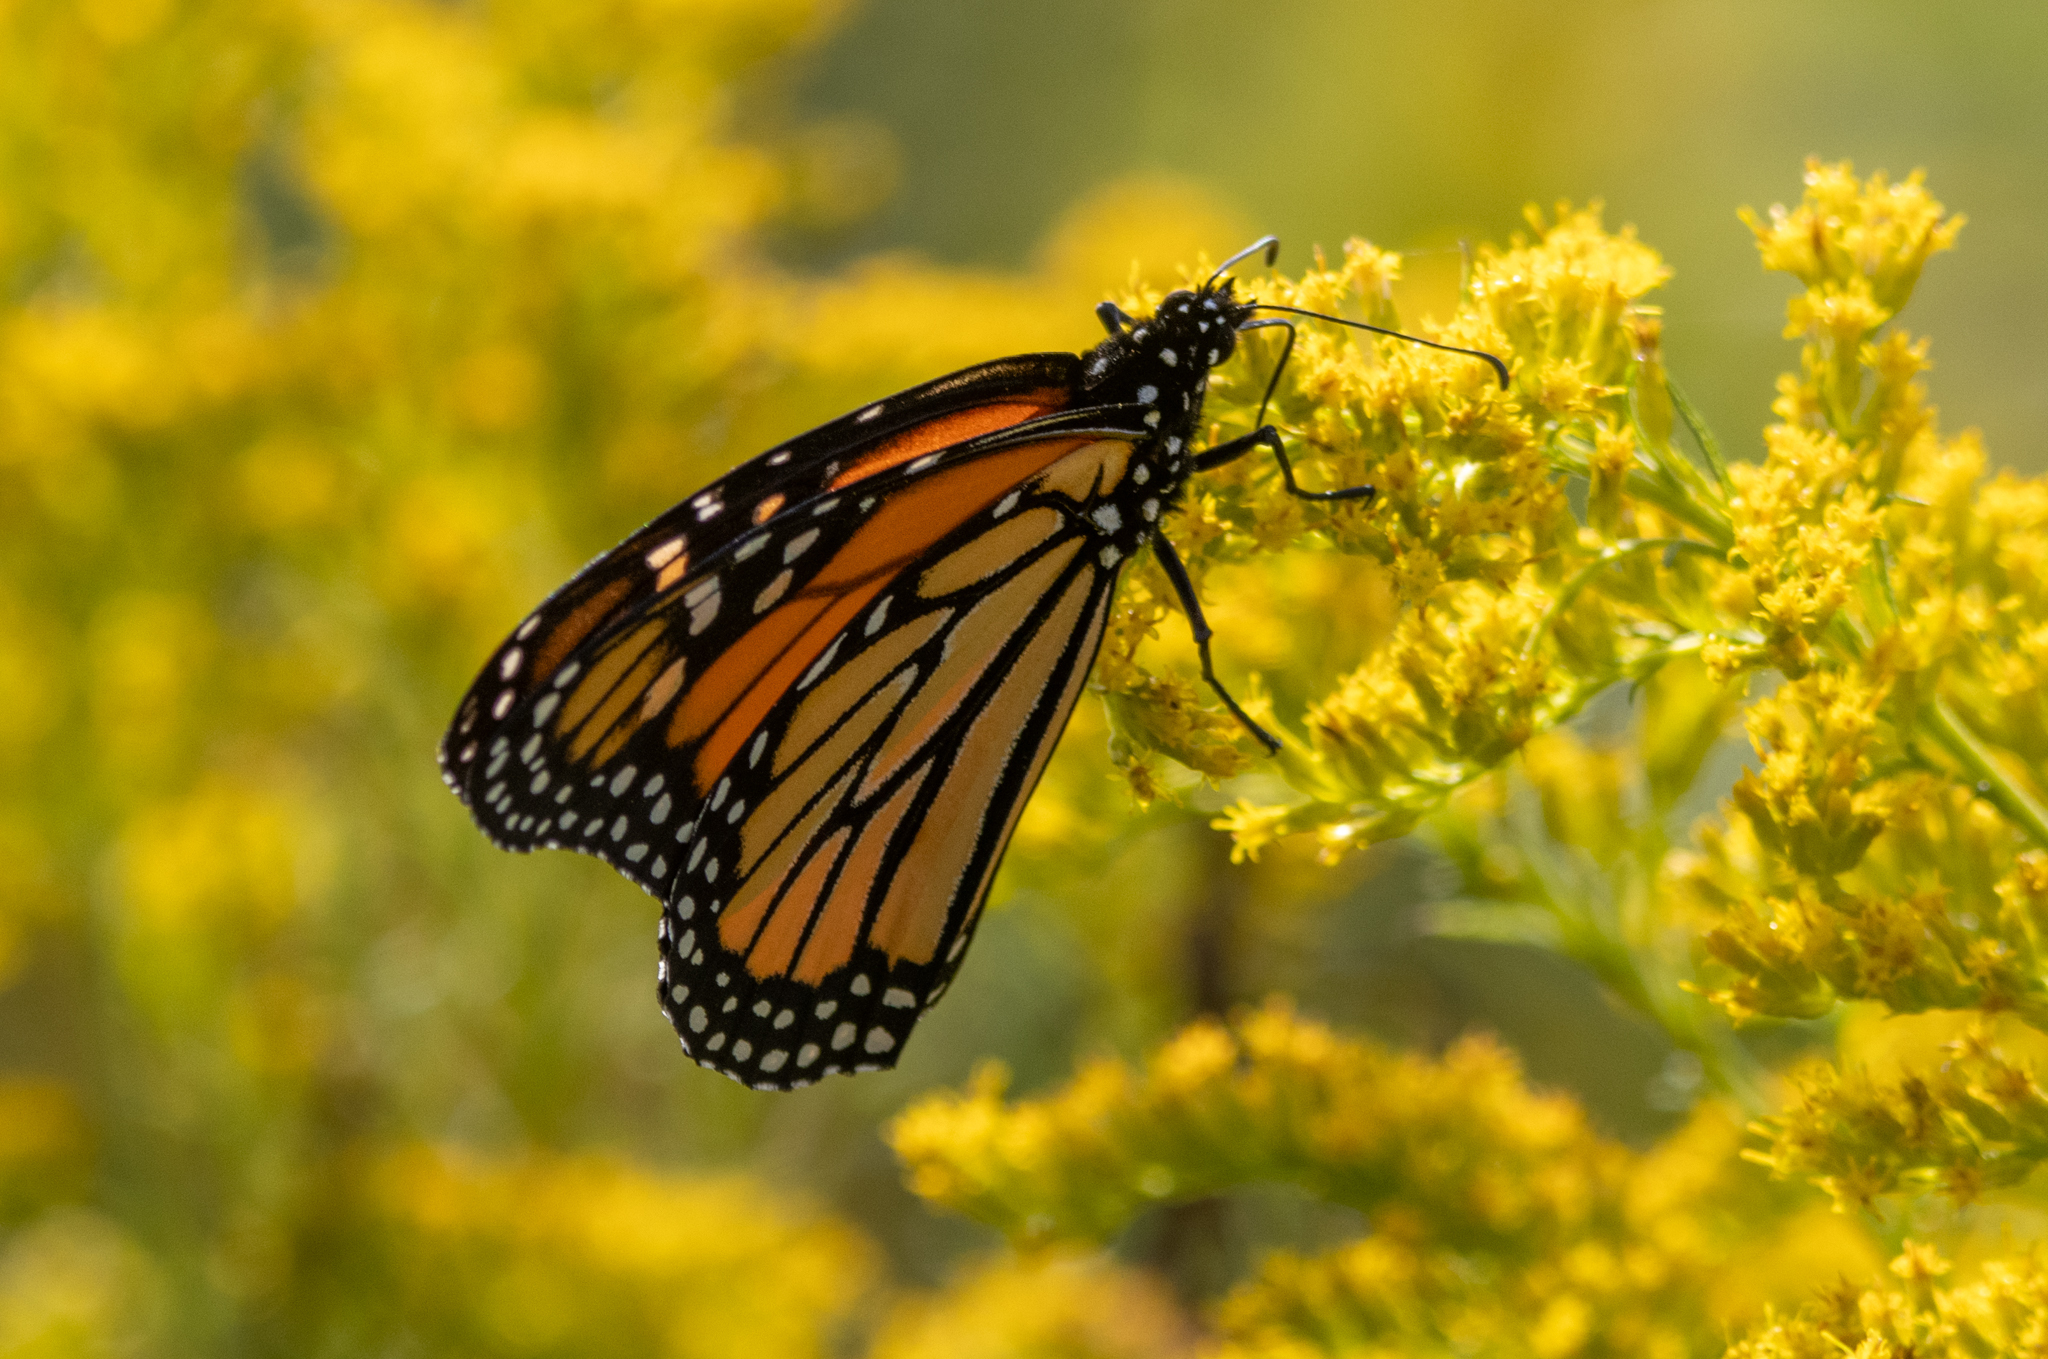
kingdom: Animalia
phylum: Arthropoda
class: Insecta
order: Lepidoptera
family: Nymphalidae
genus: Danaus
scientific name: Danaus plexippus
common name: Monarch
